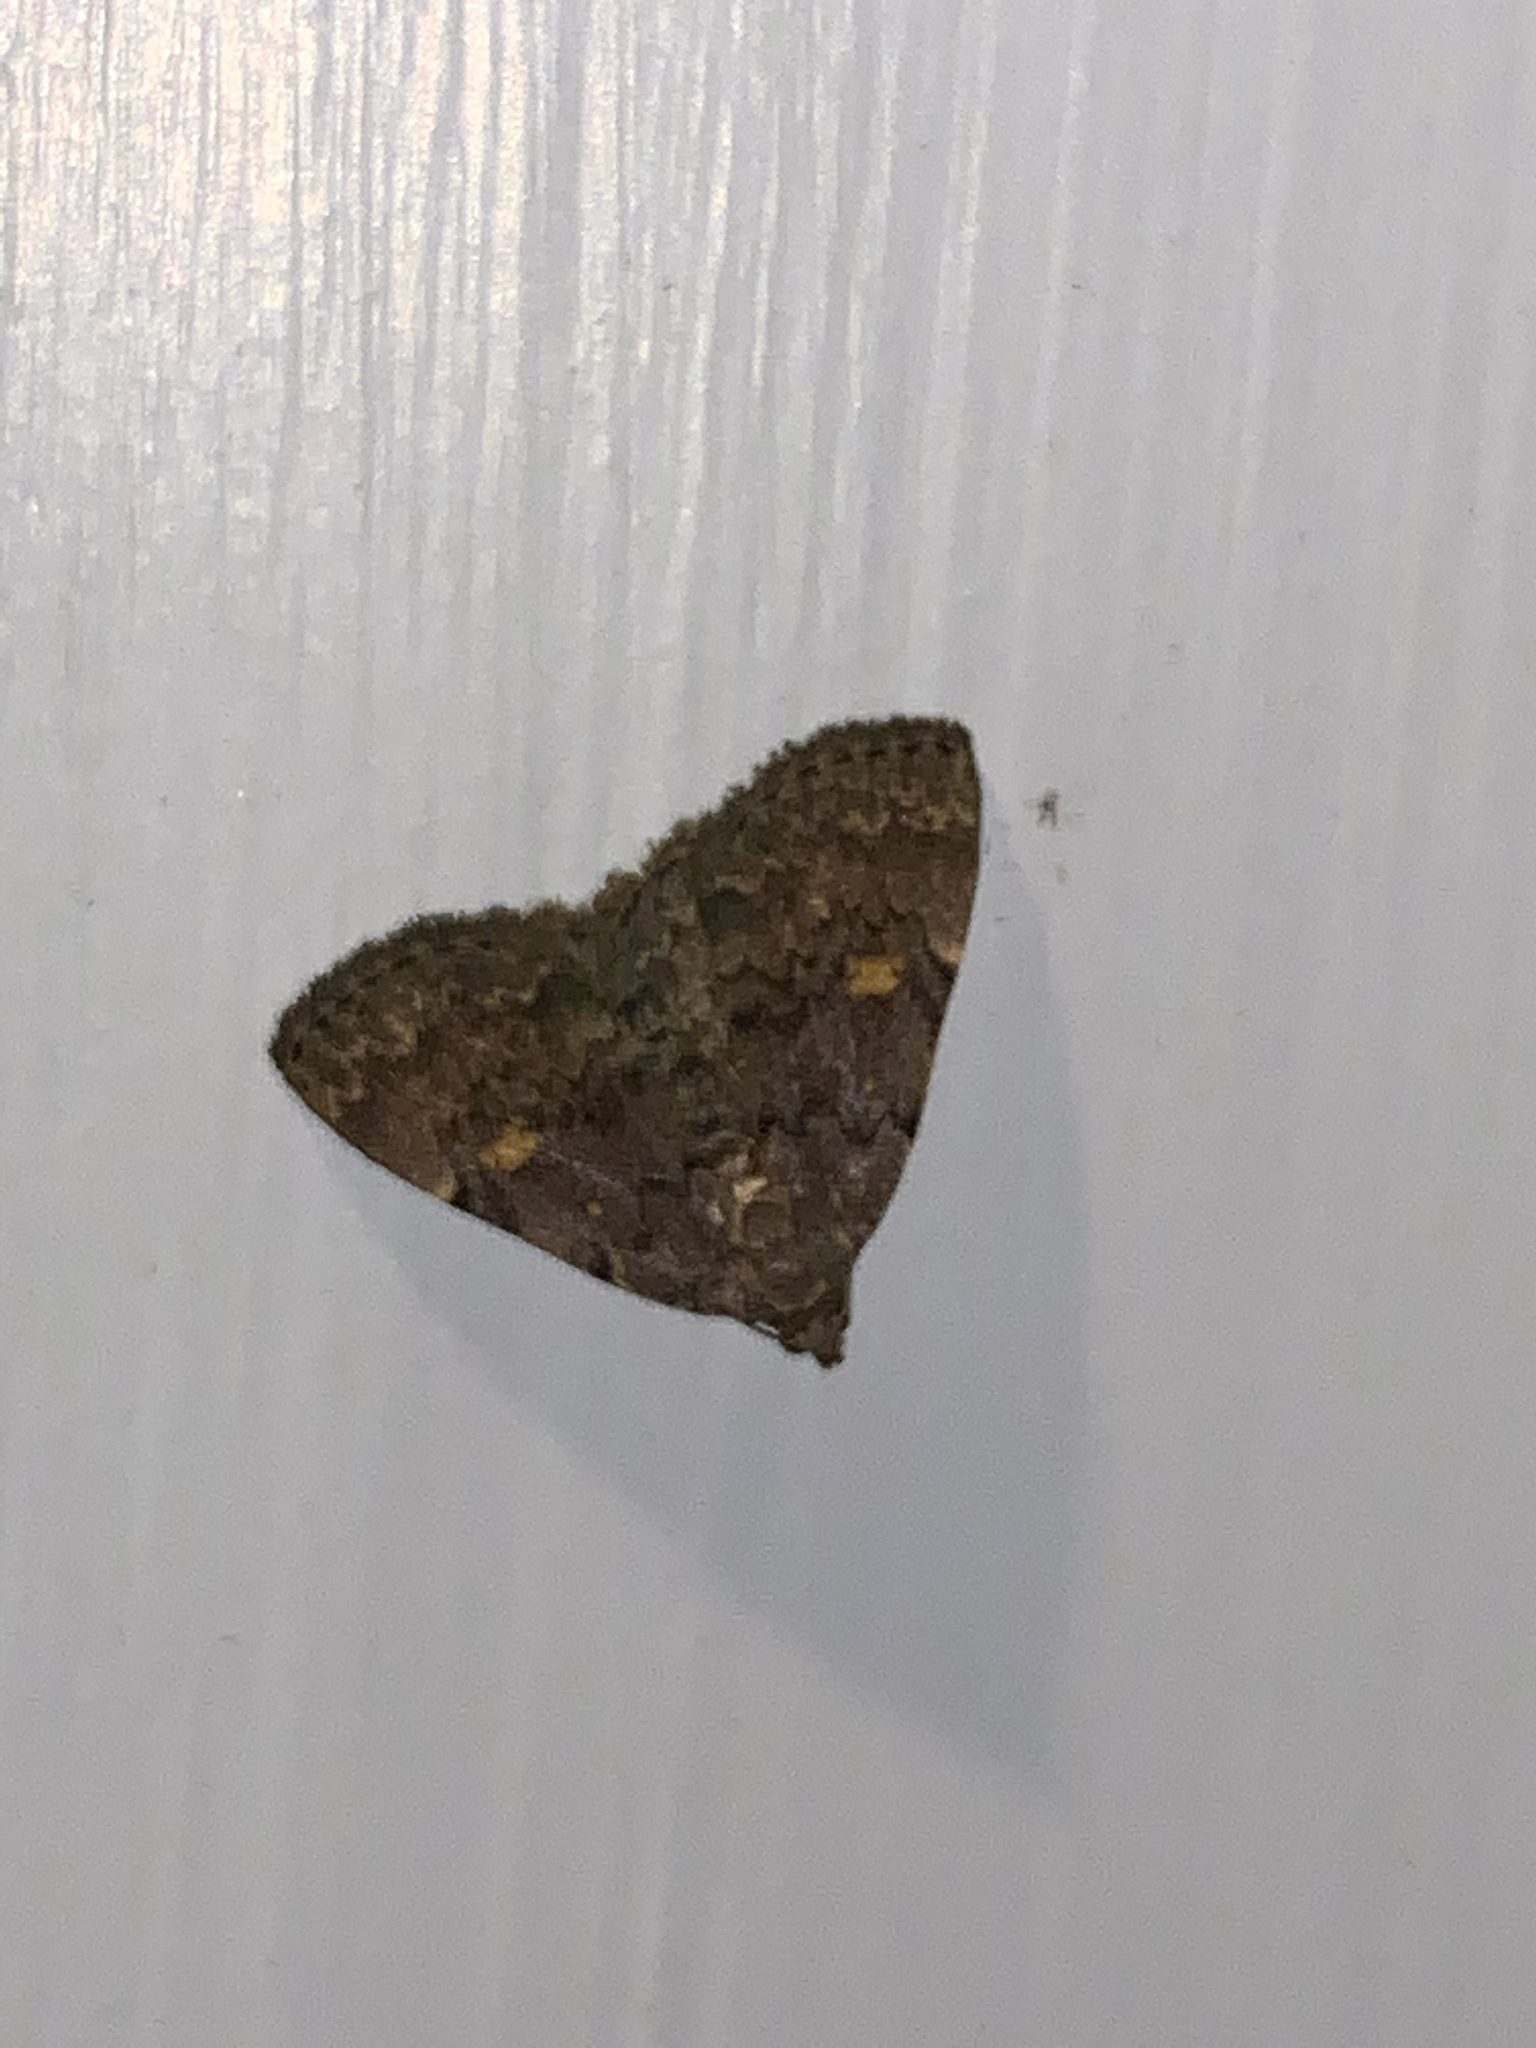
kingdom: Animalia
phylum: Arthropoda
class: Insecta
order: Lepidoptera
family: Erebidae
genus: Idia
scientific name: Idia aemula
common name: Common idia moth
